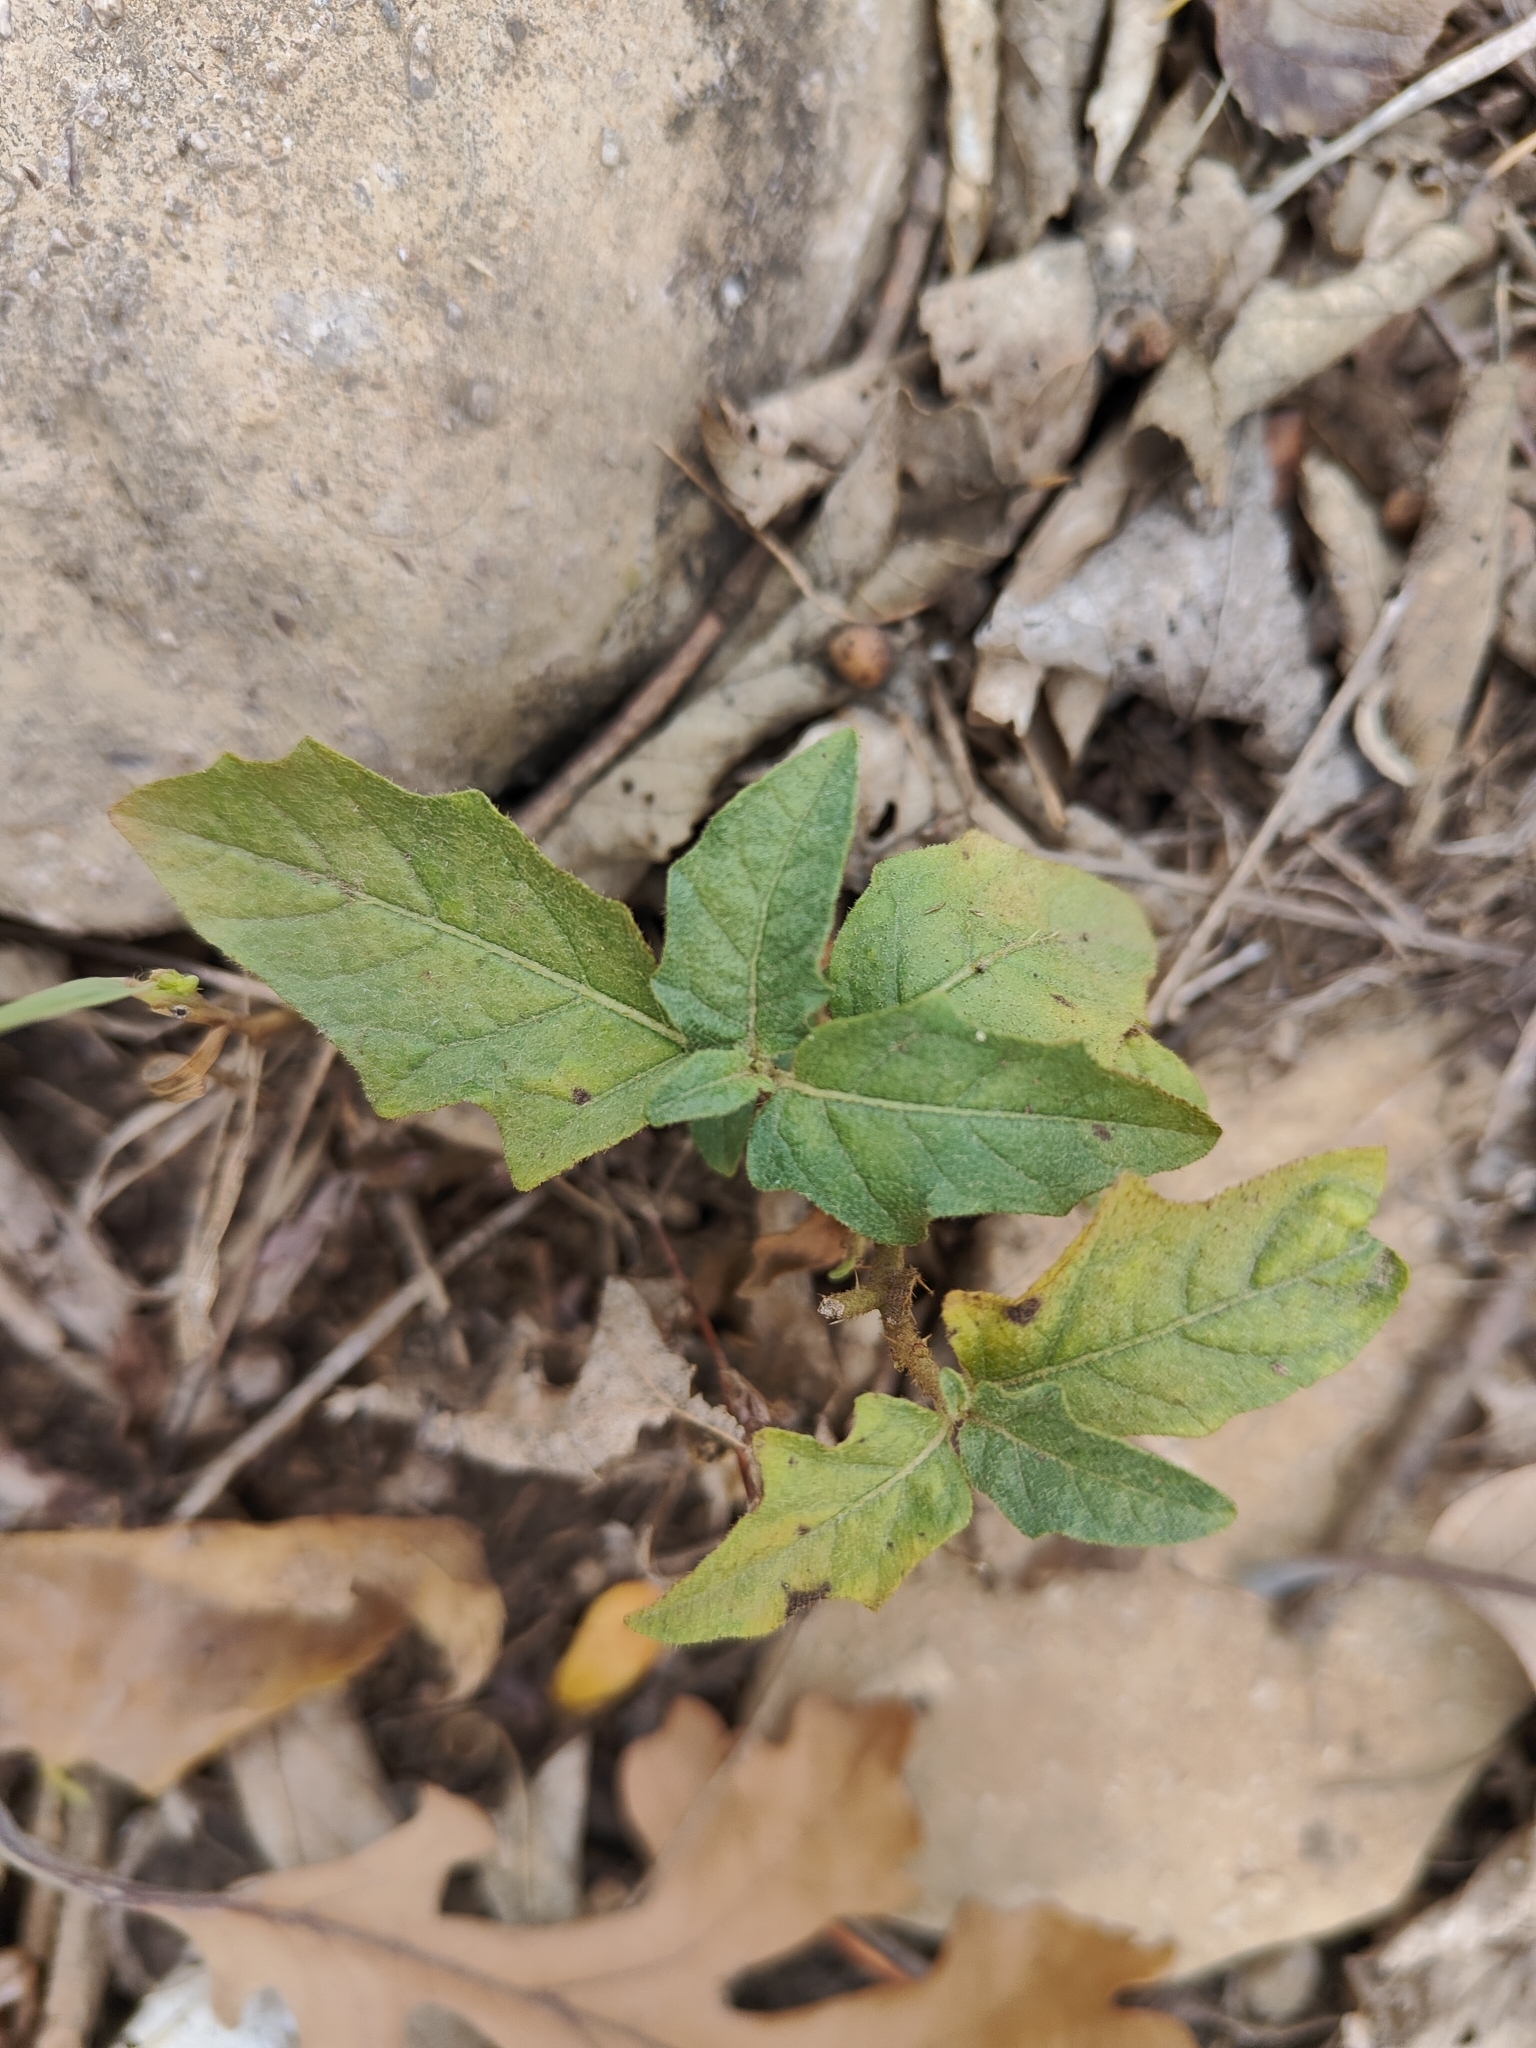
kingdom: Plantae
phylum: Tracheophyta
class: Magnoliopsida
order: Solanales
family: Solanaceae
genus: Solanum
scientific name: Solanum carolinense
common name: Horse-nettle
